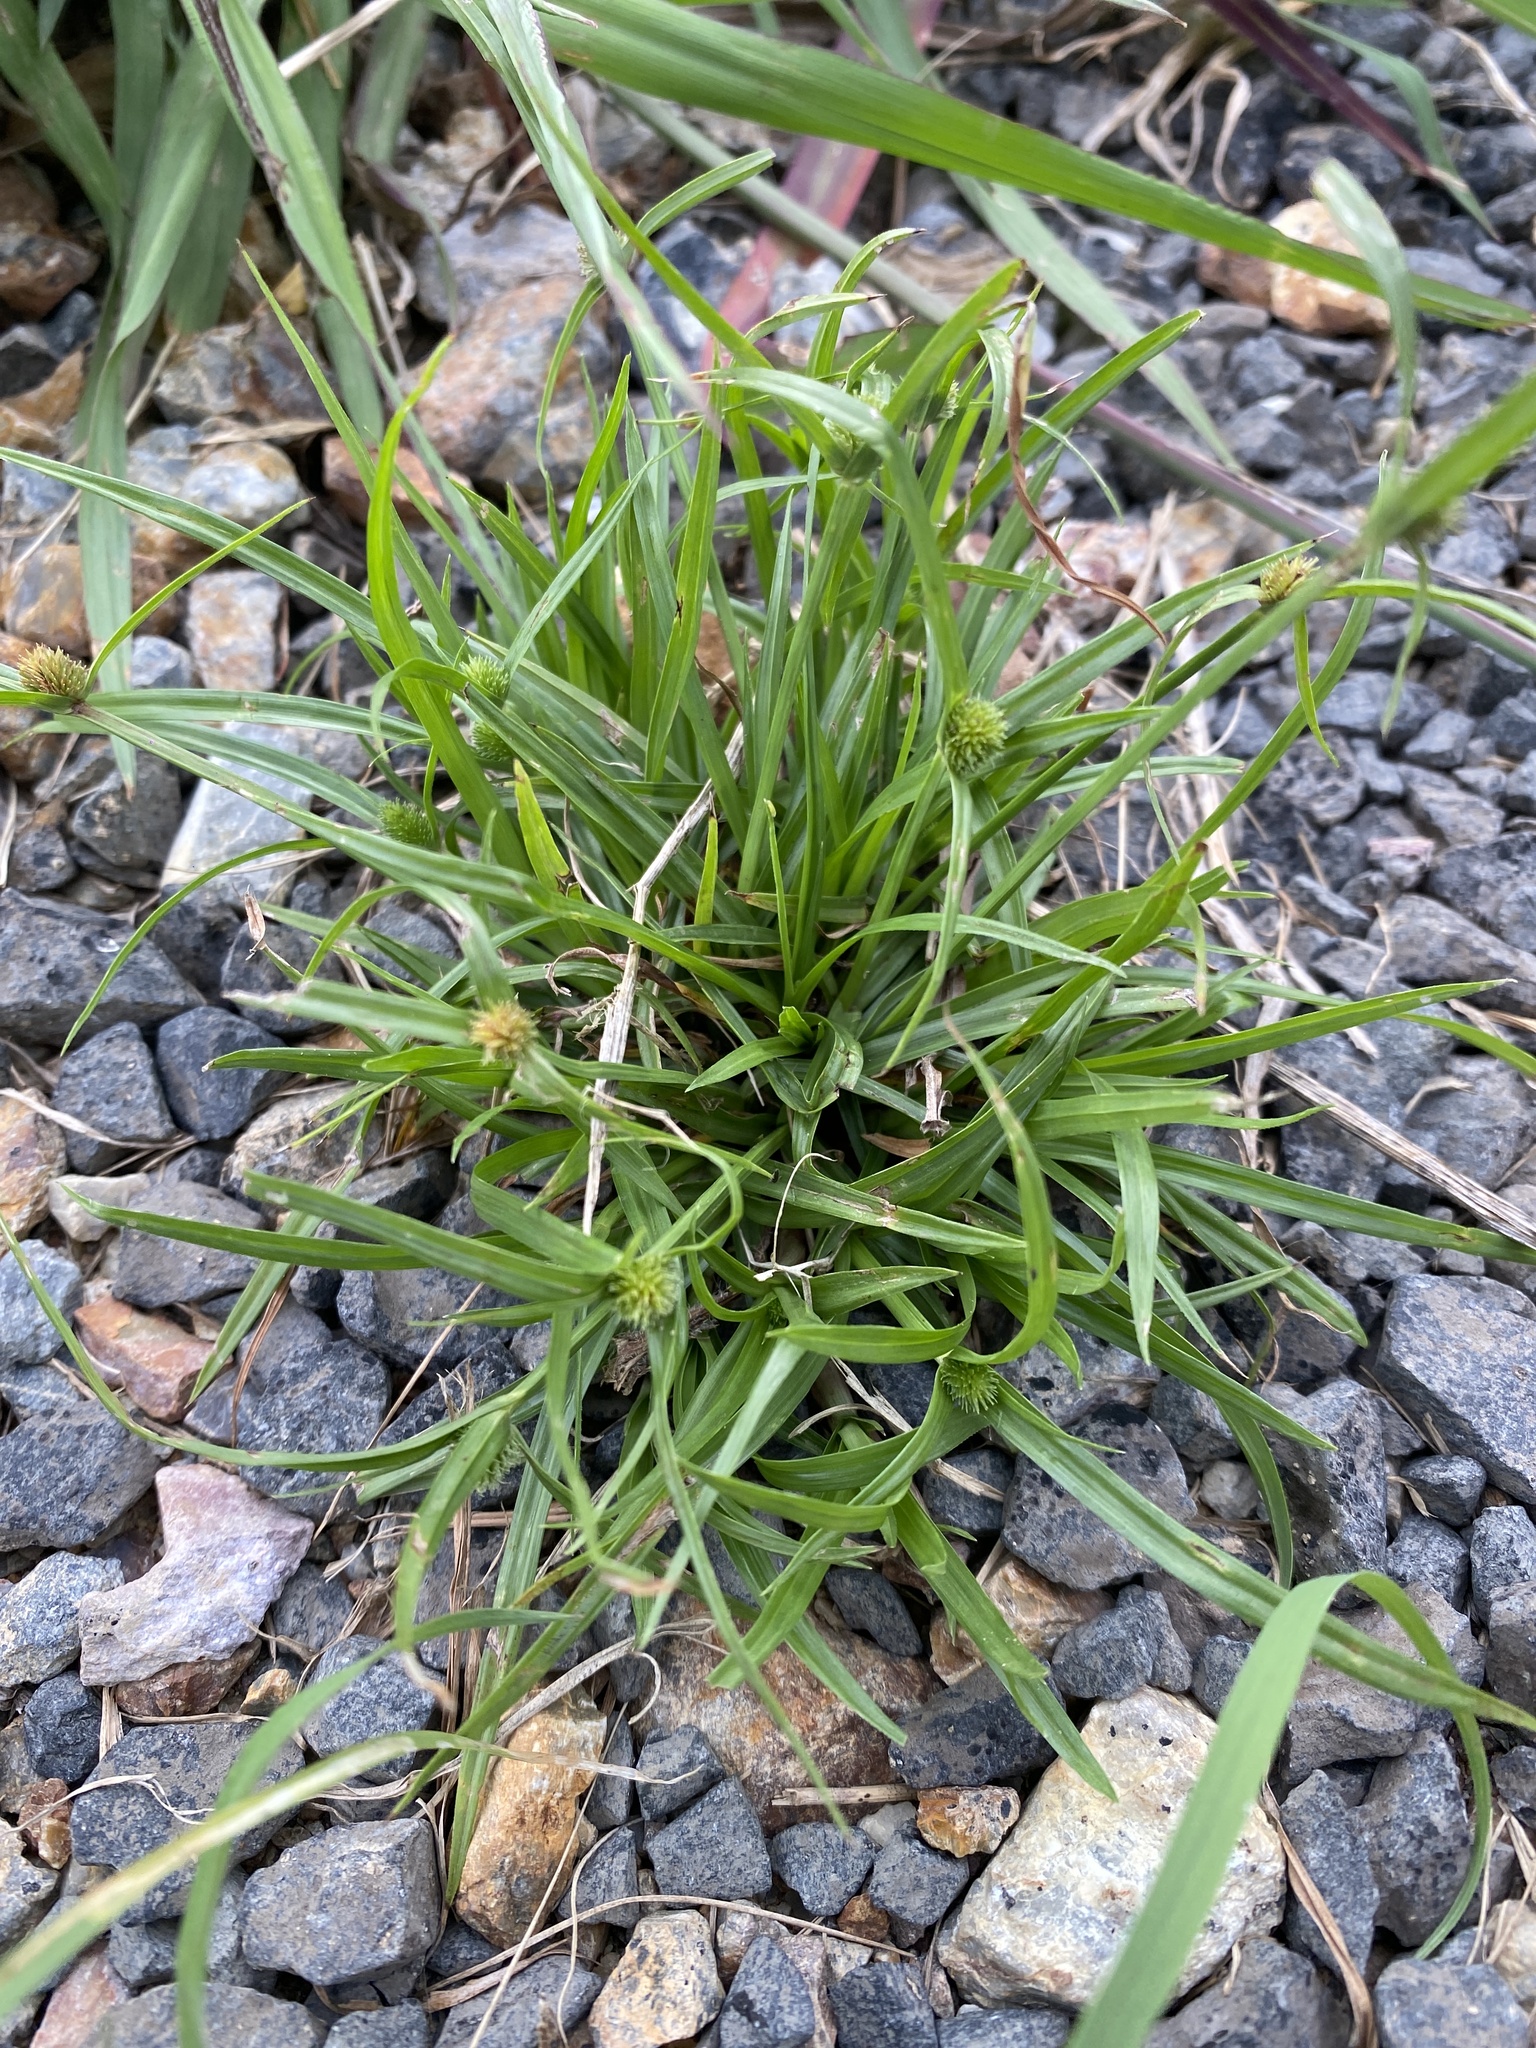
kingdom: Plantae
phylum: Tracheophyta
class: Liliopsida
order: Poales
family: Cyperaceae
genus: Cyperus
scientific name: Cyperus brevifolius
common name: Globe kyllinga
